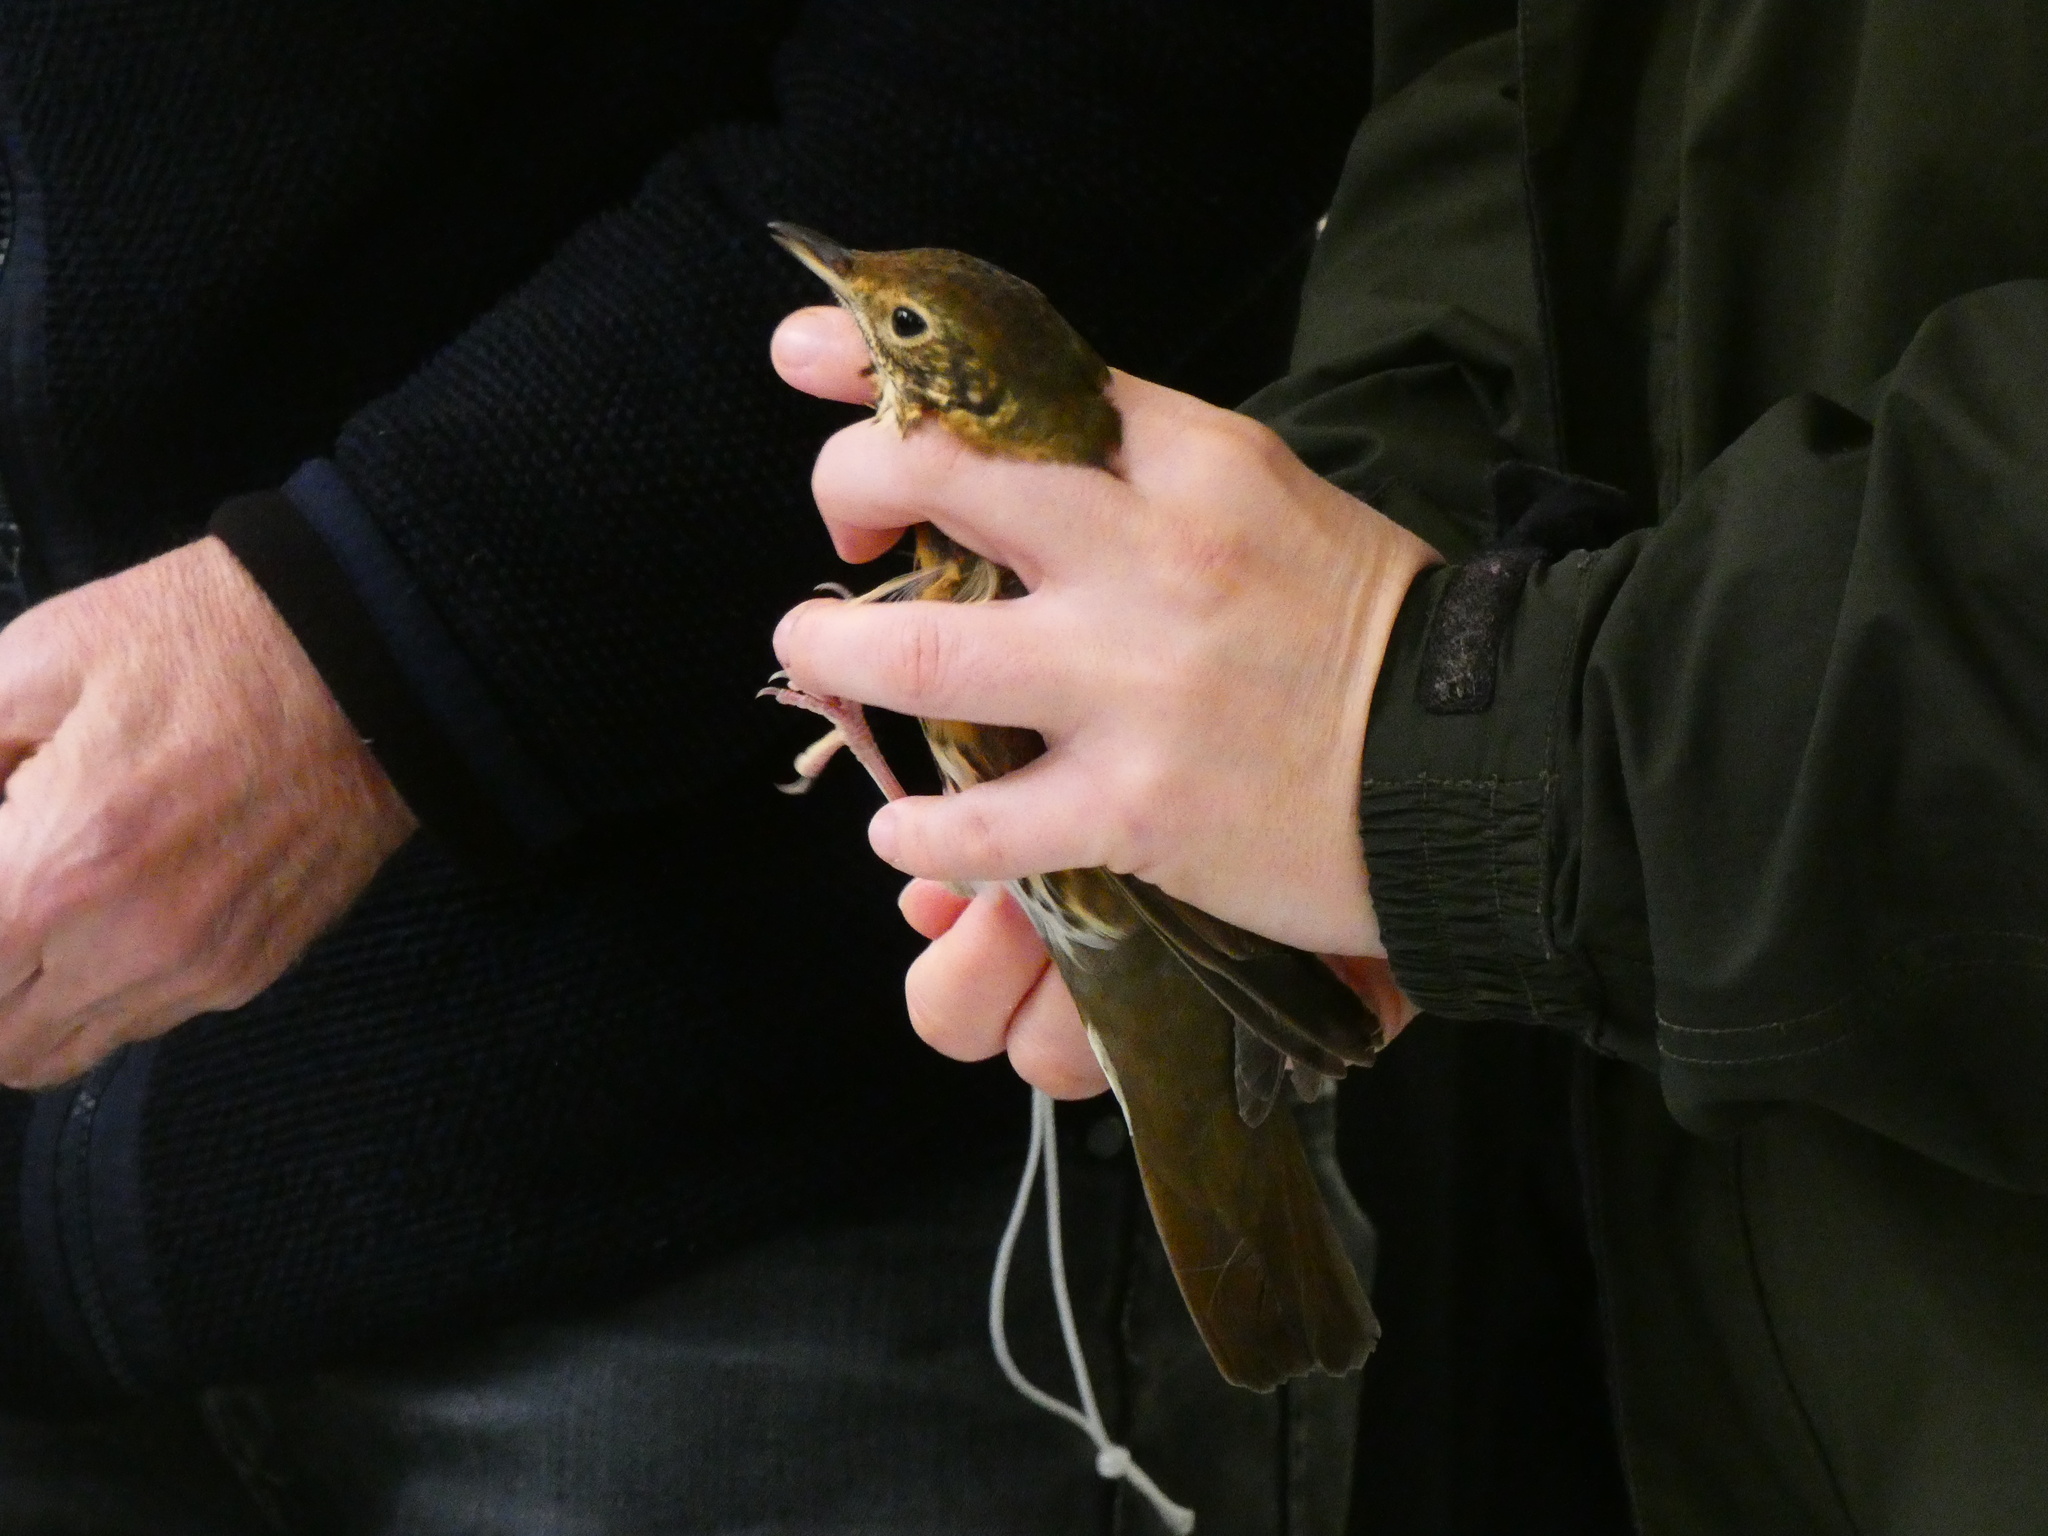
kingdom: Animalia
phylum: Chordata
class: Aves
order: Passeriformes
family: Turdidae
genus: Turdus
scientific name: Turdus philomelos
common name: Song thrush
